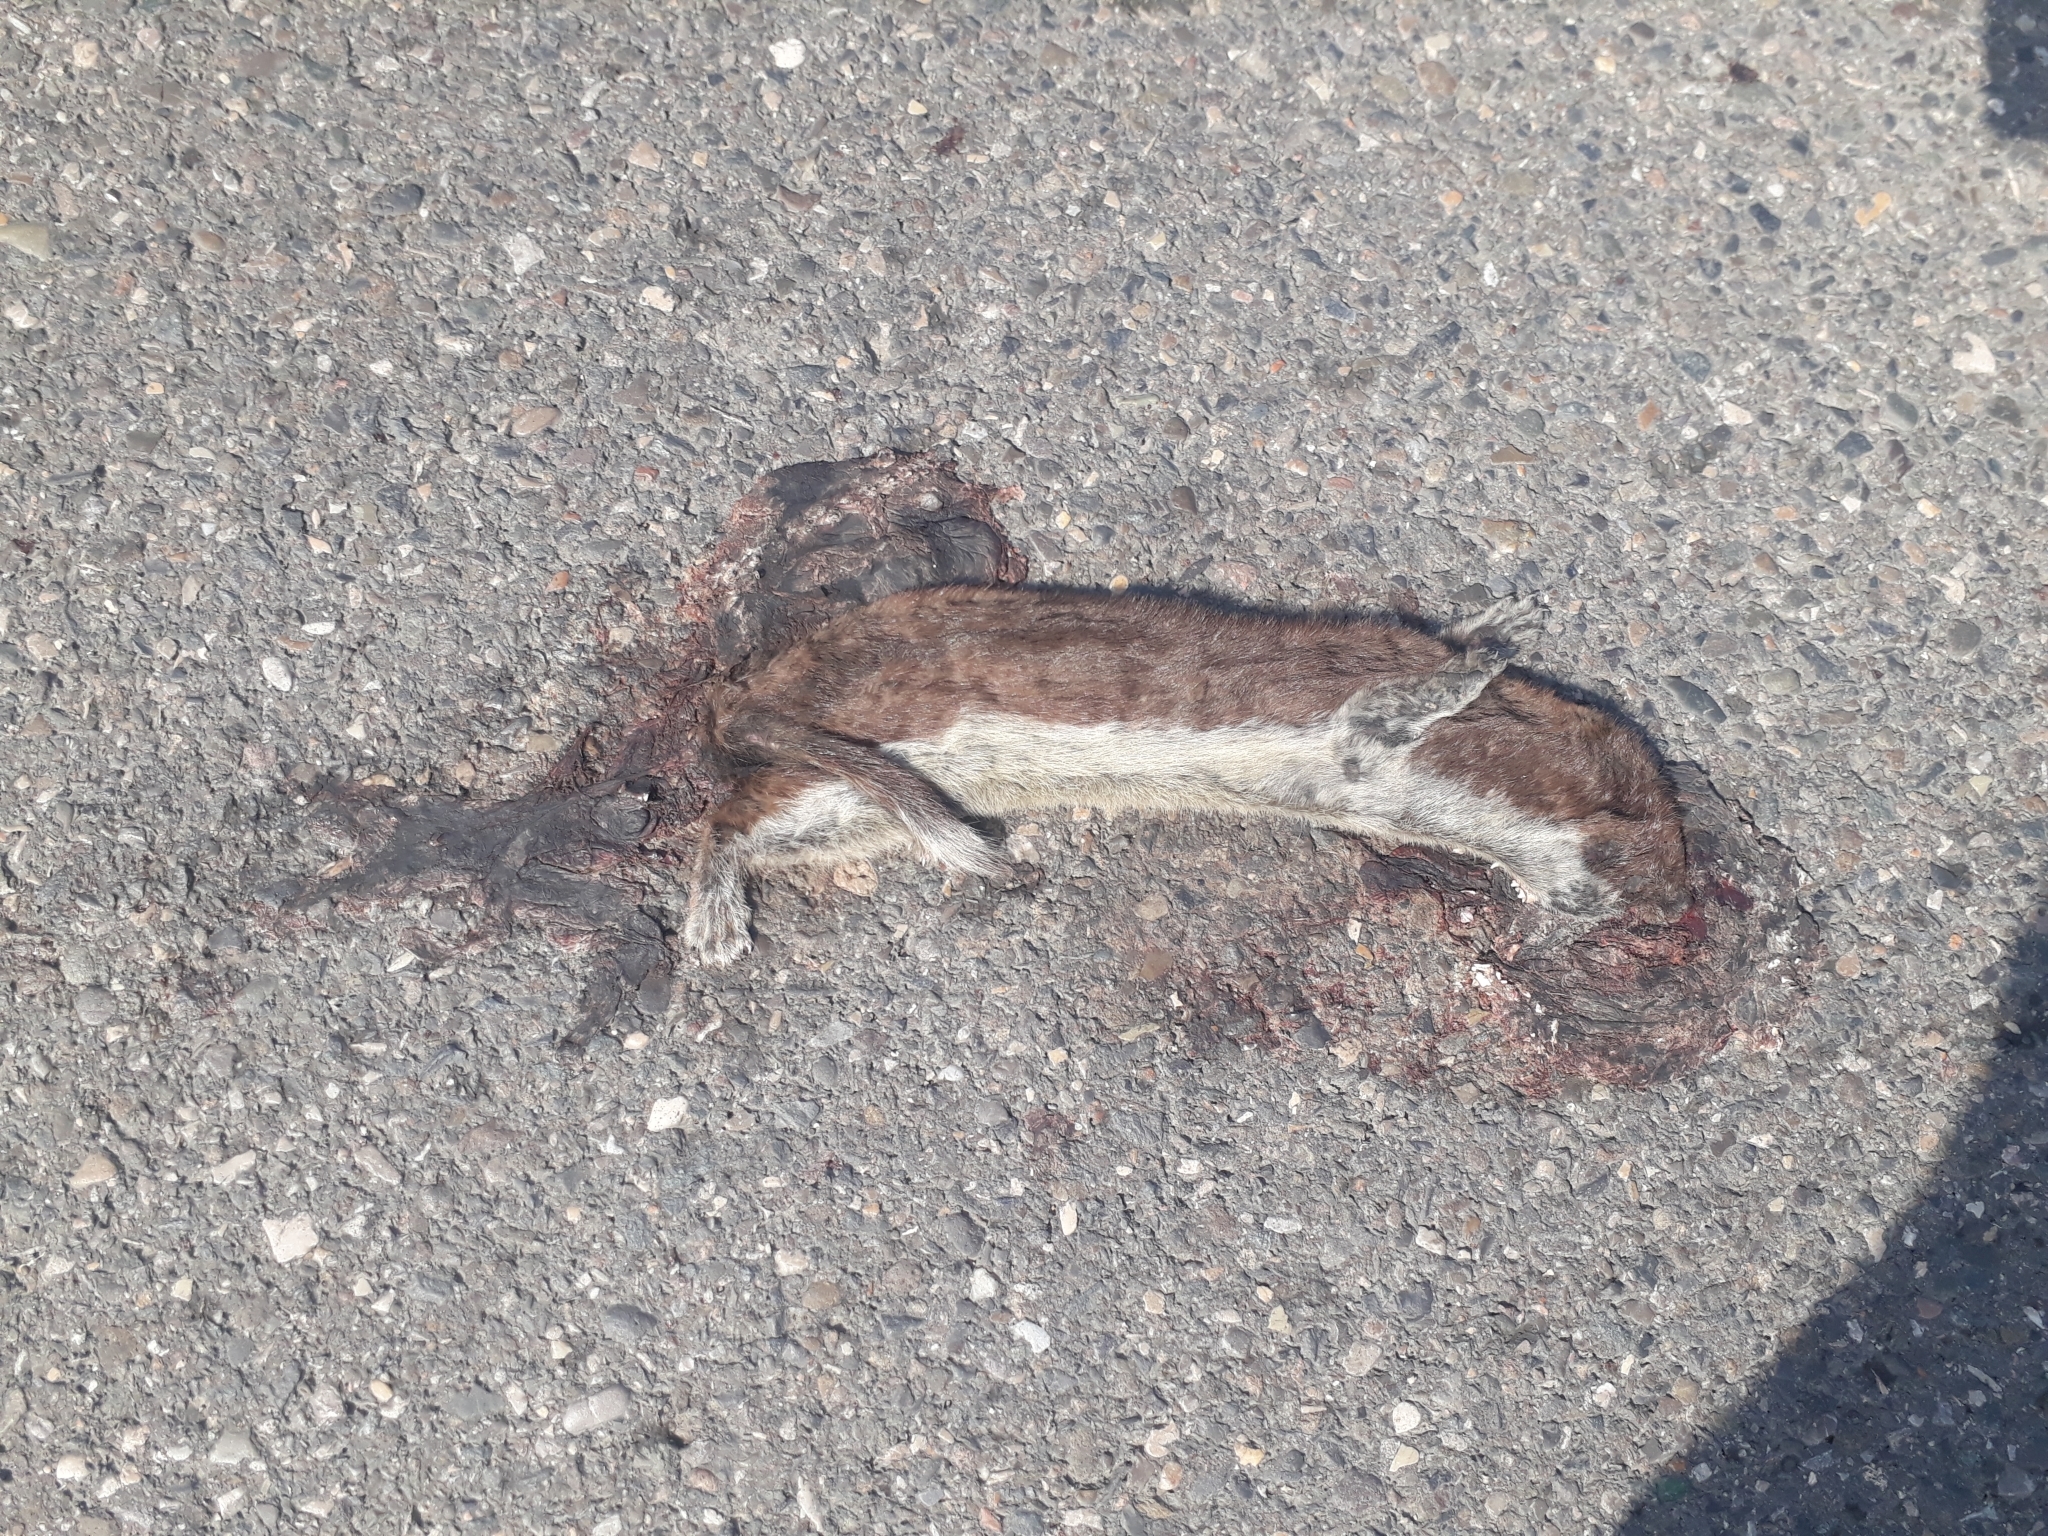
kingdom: Animalia
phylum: Chordata
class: Mammalia
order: Carnivora
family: Mustelidae
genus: Mustela
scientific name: Mustela nivalis
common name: Least weasel
